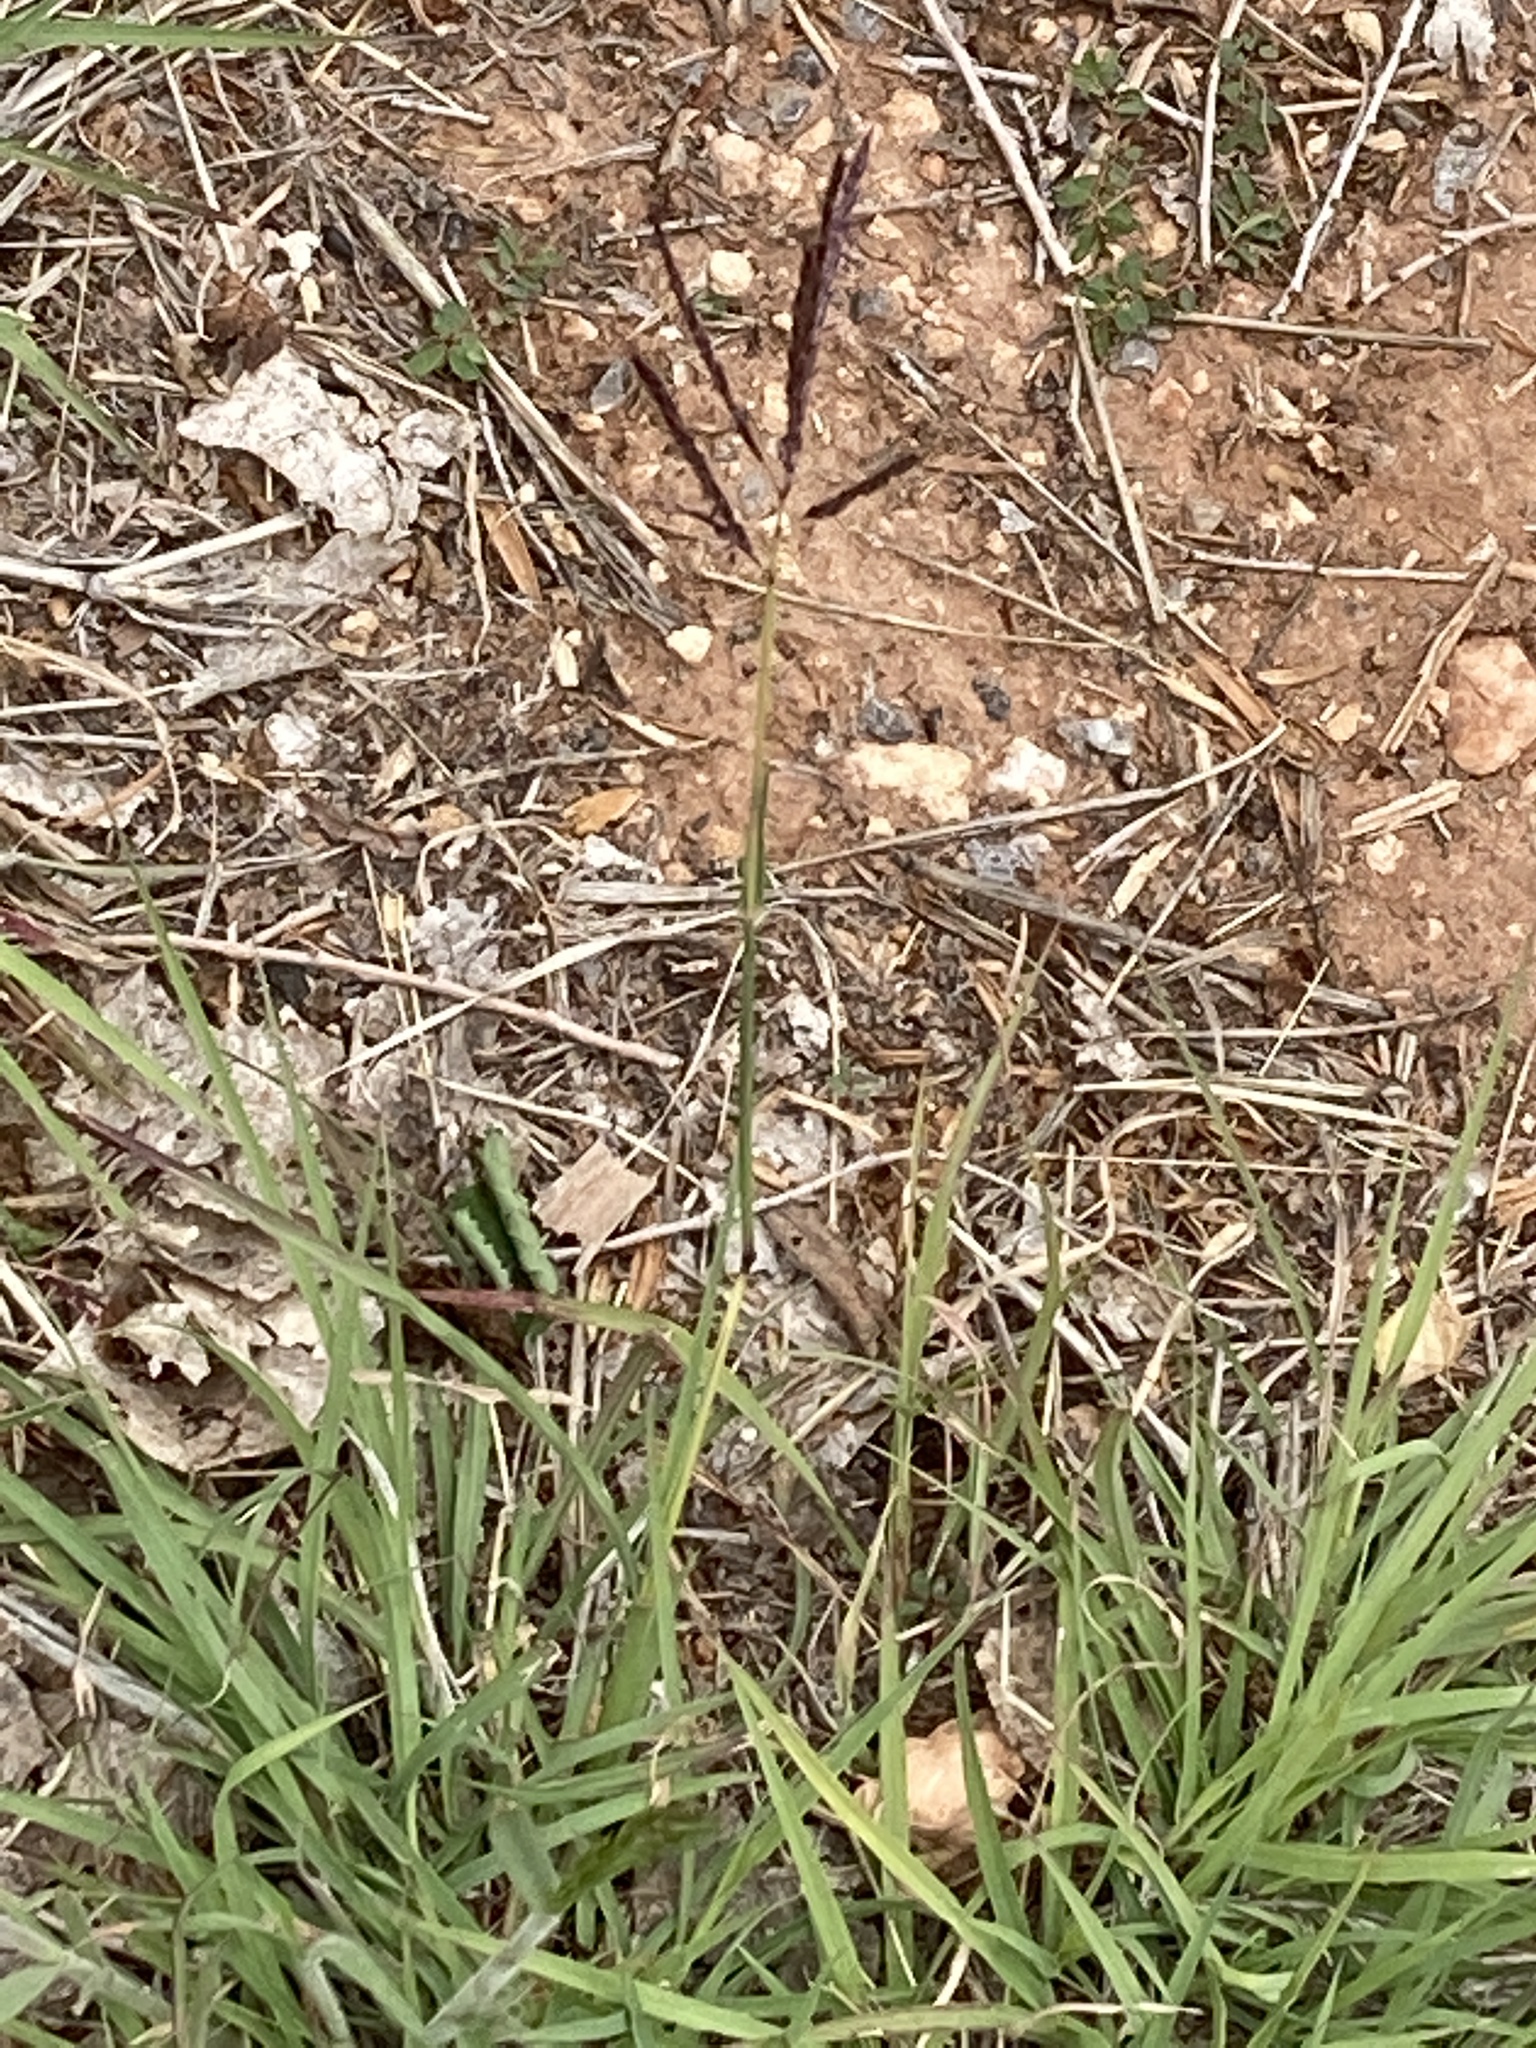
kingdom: Plantae
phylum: Tracheophyta
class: Liliopsida
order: Poales
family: Poaceae
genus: Bothriochloa
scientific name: Bothriochloa ischaemum
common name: Yellow bluestem
